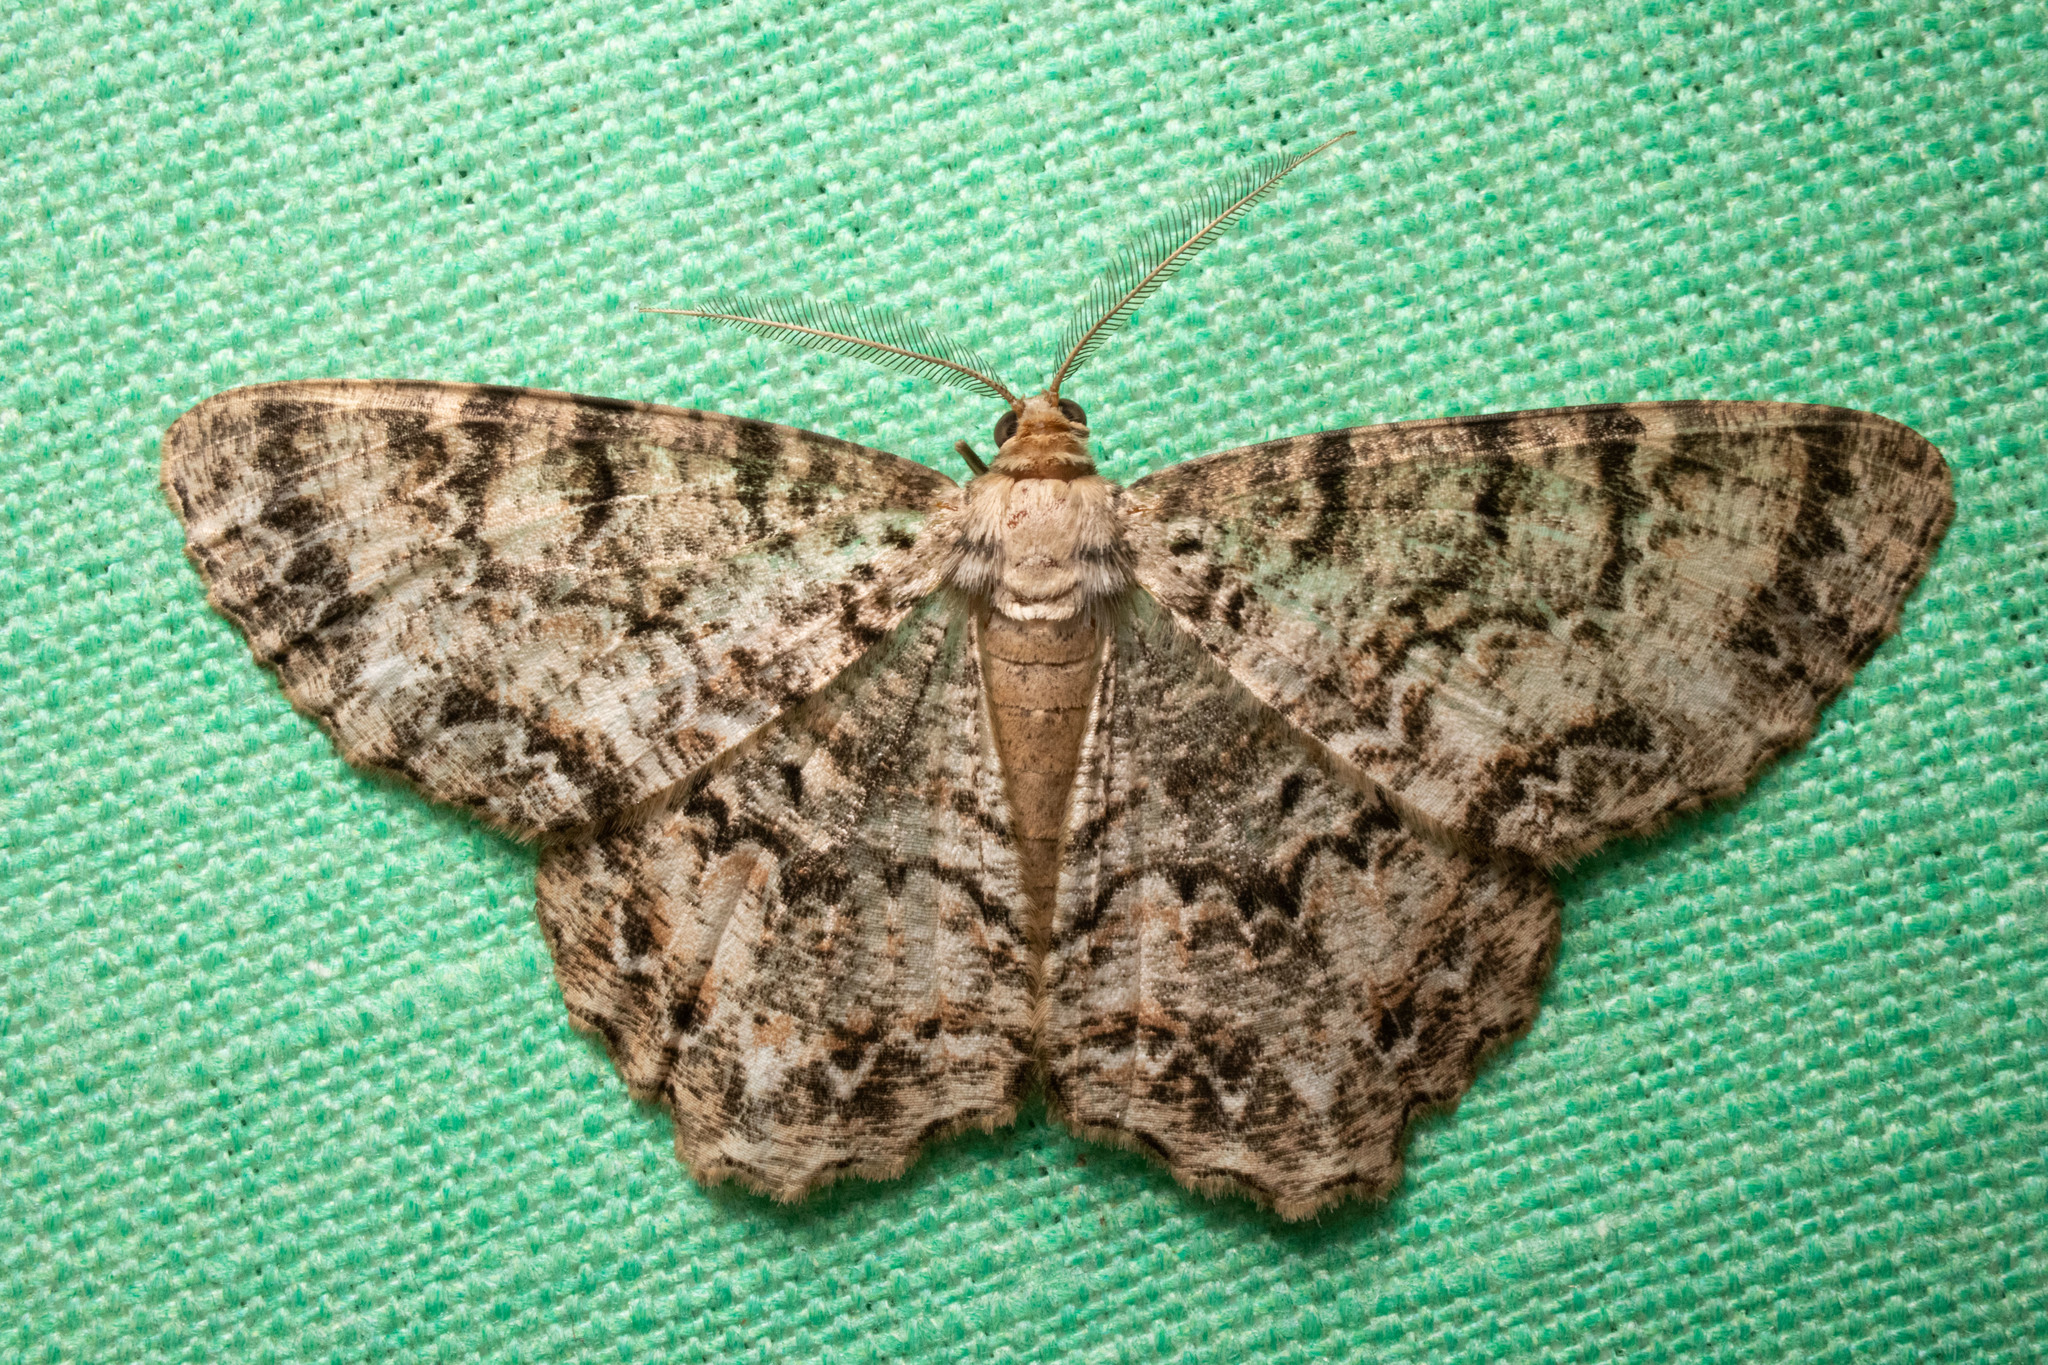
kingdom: Animalia
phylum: Arthropoda
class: Insecta
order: Lepidoptera
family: Geometridae
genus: Epimecis
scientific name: Epimecis hortaria
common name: Tulip-tree beauty
